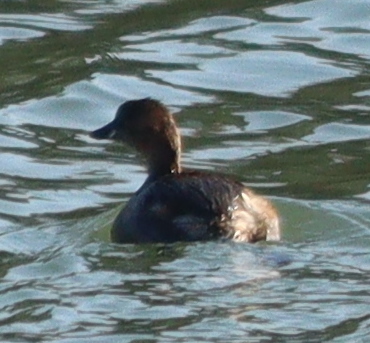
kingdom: Animalia
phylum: Chordata
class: Aves
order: Podicipediformes
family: Podicipedidae
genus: Tachybaptus
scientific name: Tachybaptus ruficollis
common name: Little grebe
